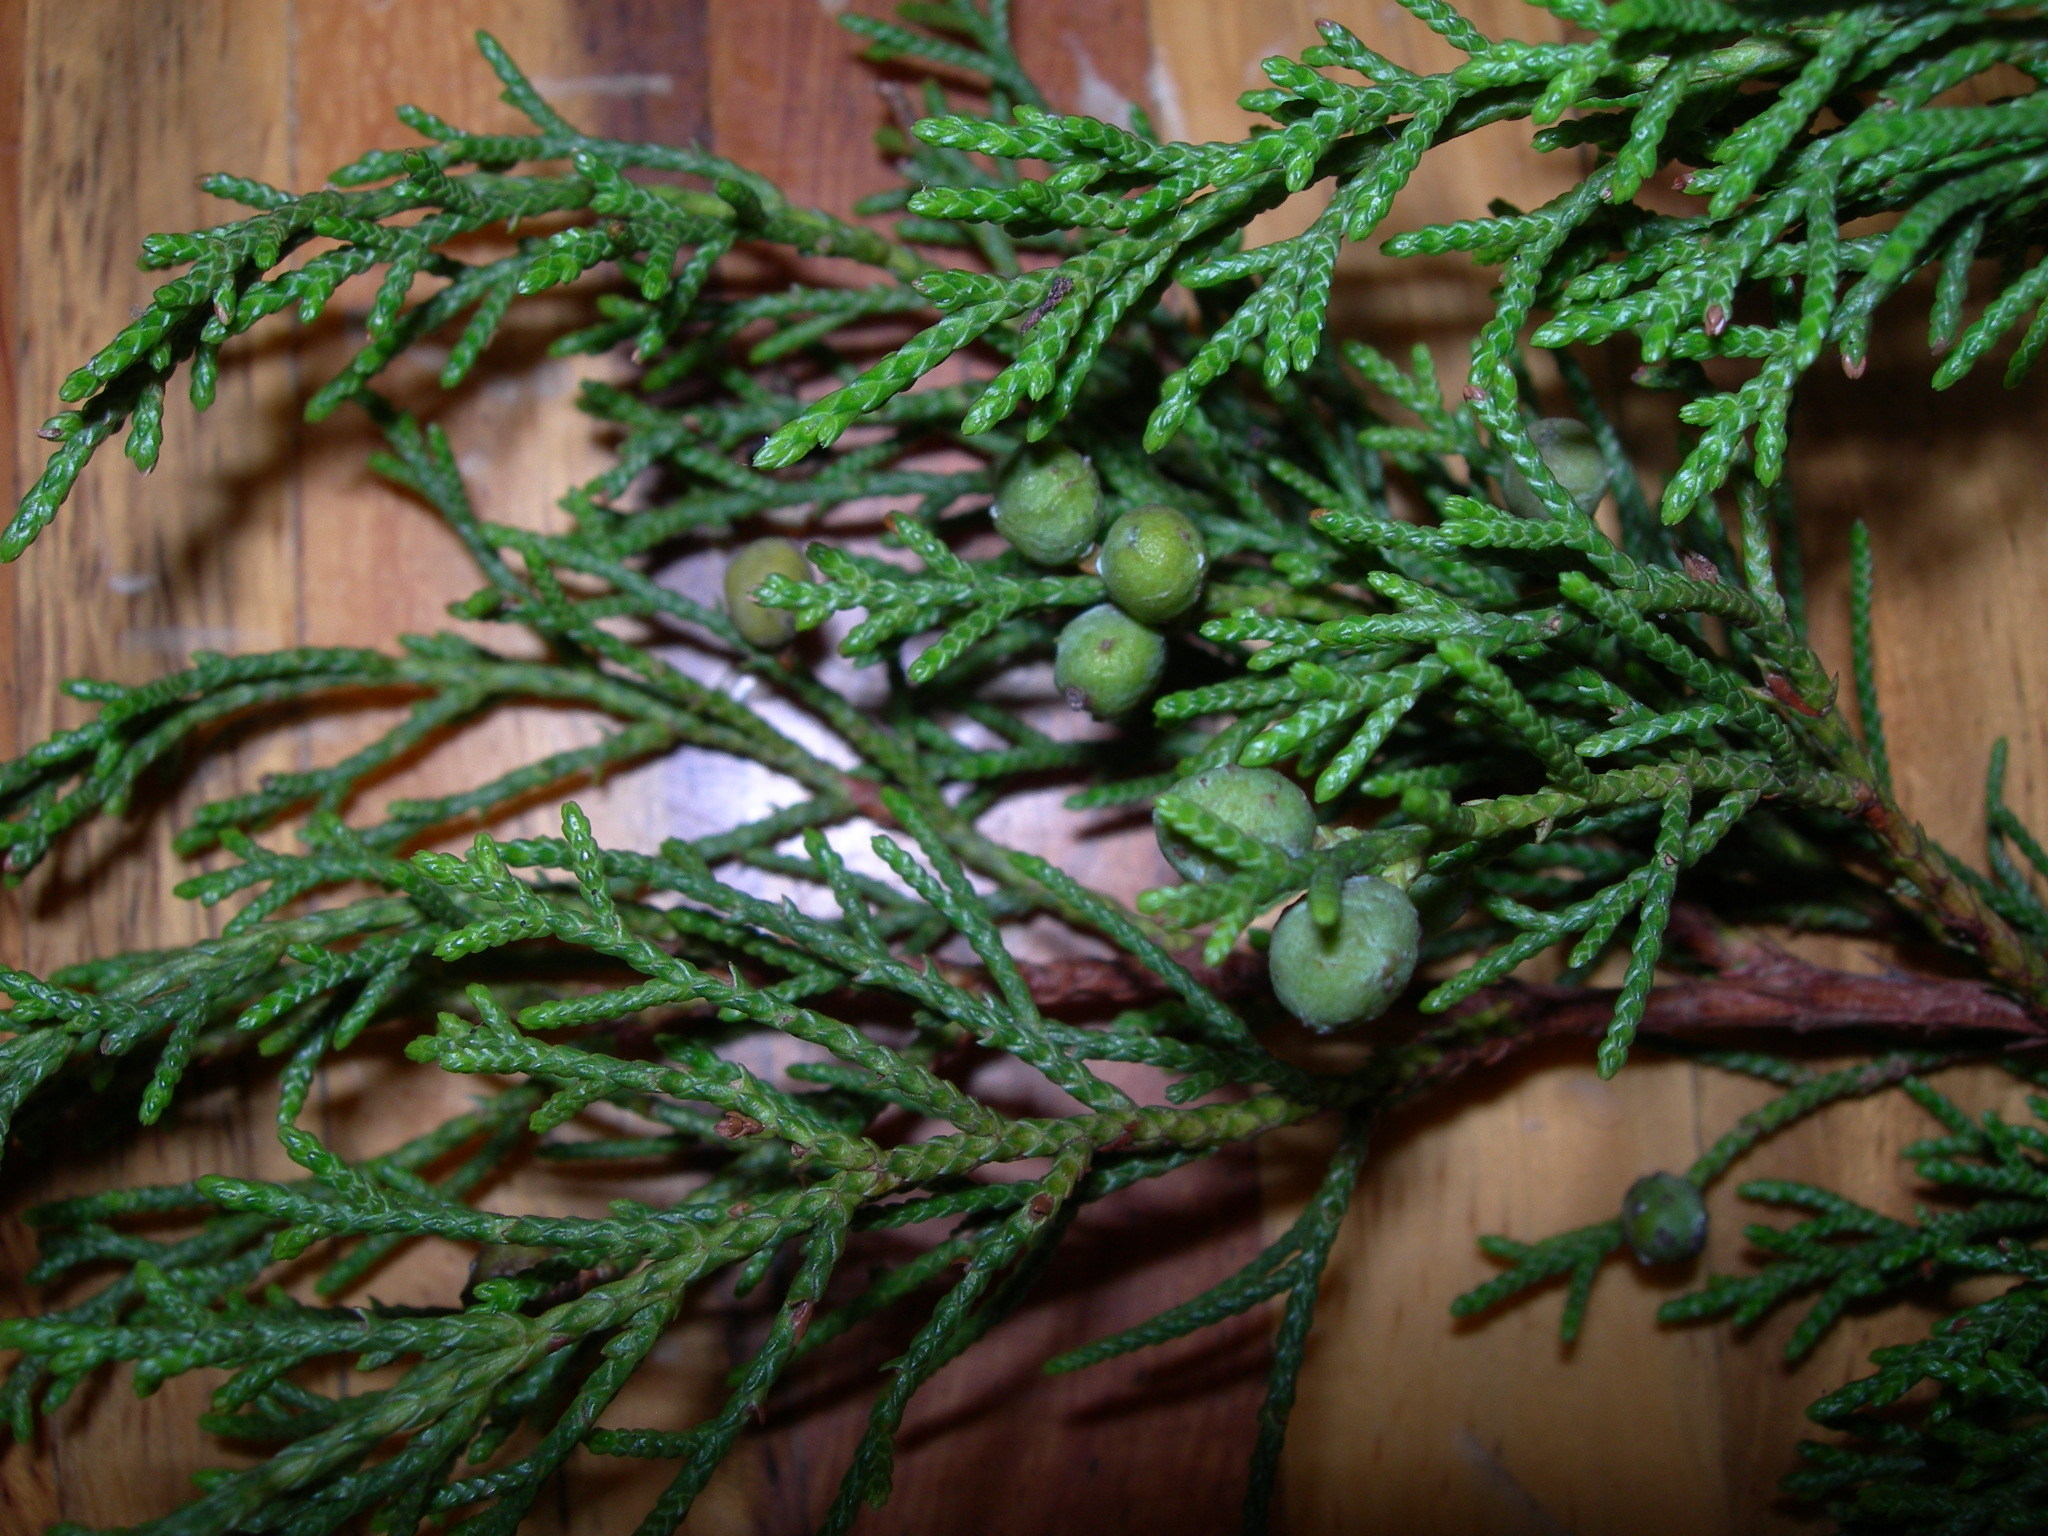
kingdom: Plantae
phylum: Tracheophyta
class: Pinopsida
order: Pinales
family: Cupressaceae
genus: Juniperus
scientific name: Juniperus comitana
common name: Comitan juniper
